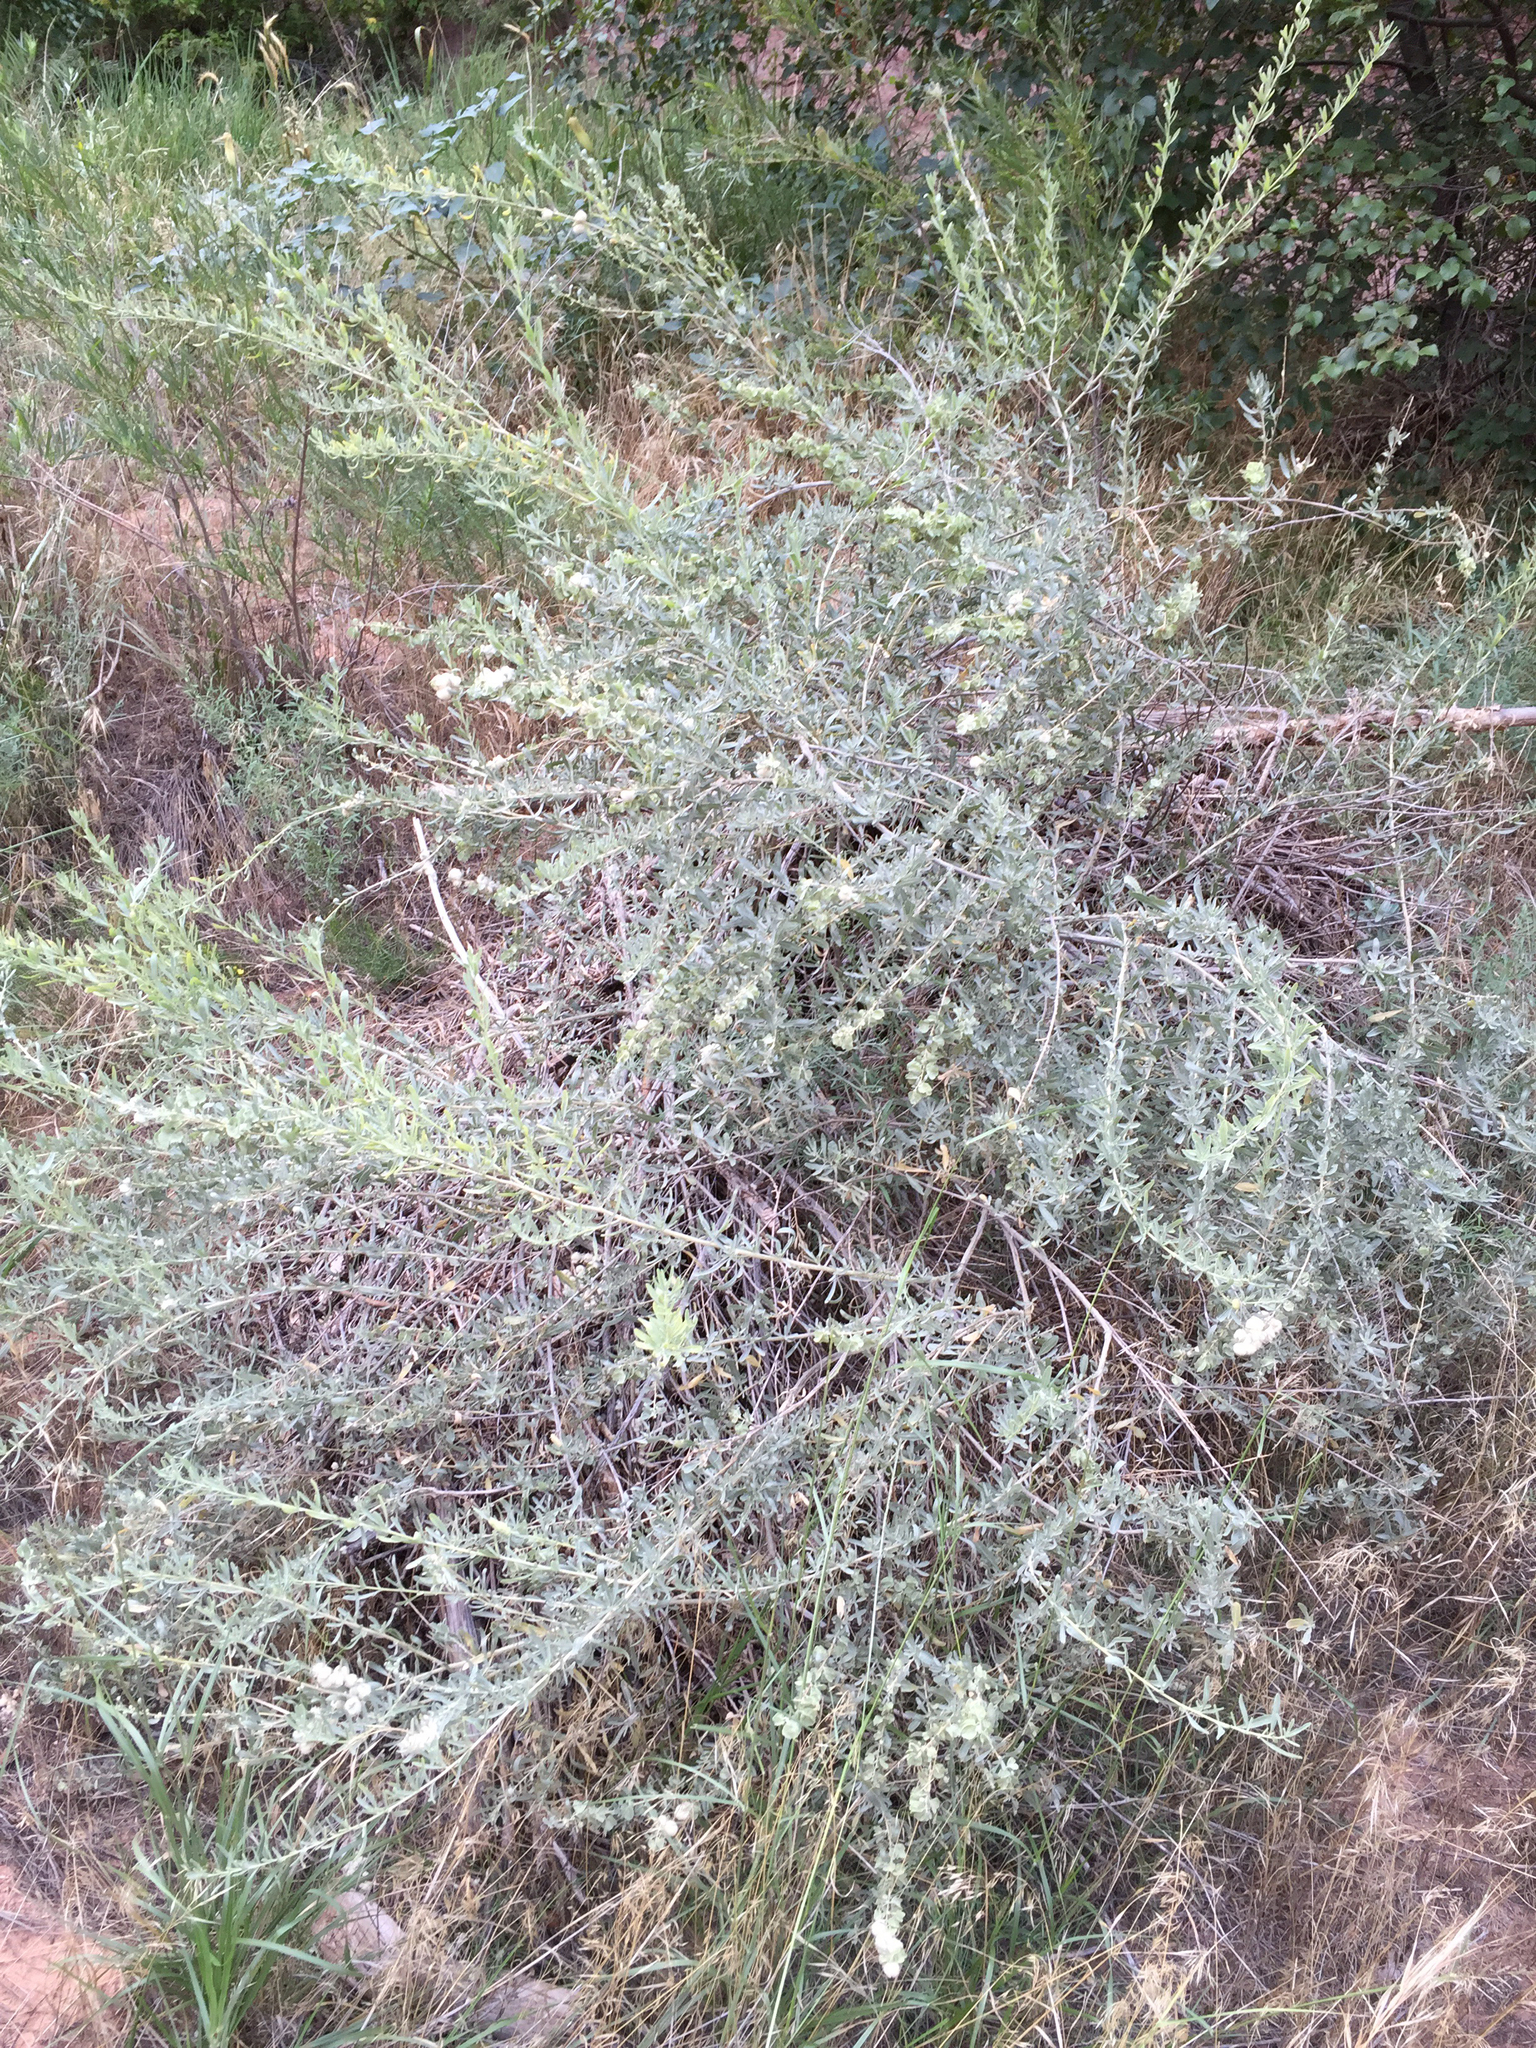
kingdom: Plantae
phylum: Tracheophyta
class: Magnoliopsida
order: Caryophyllales
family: Amaranthaceae
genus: Atriplex
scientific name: Atriplex canescens
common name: Four-wing saltbush
